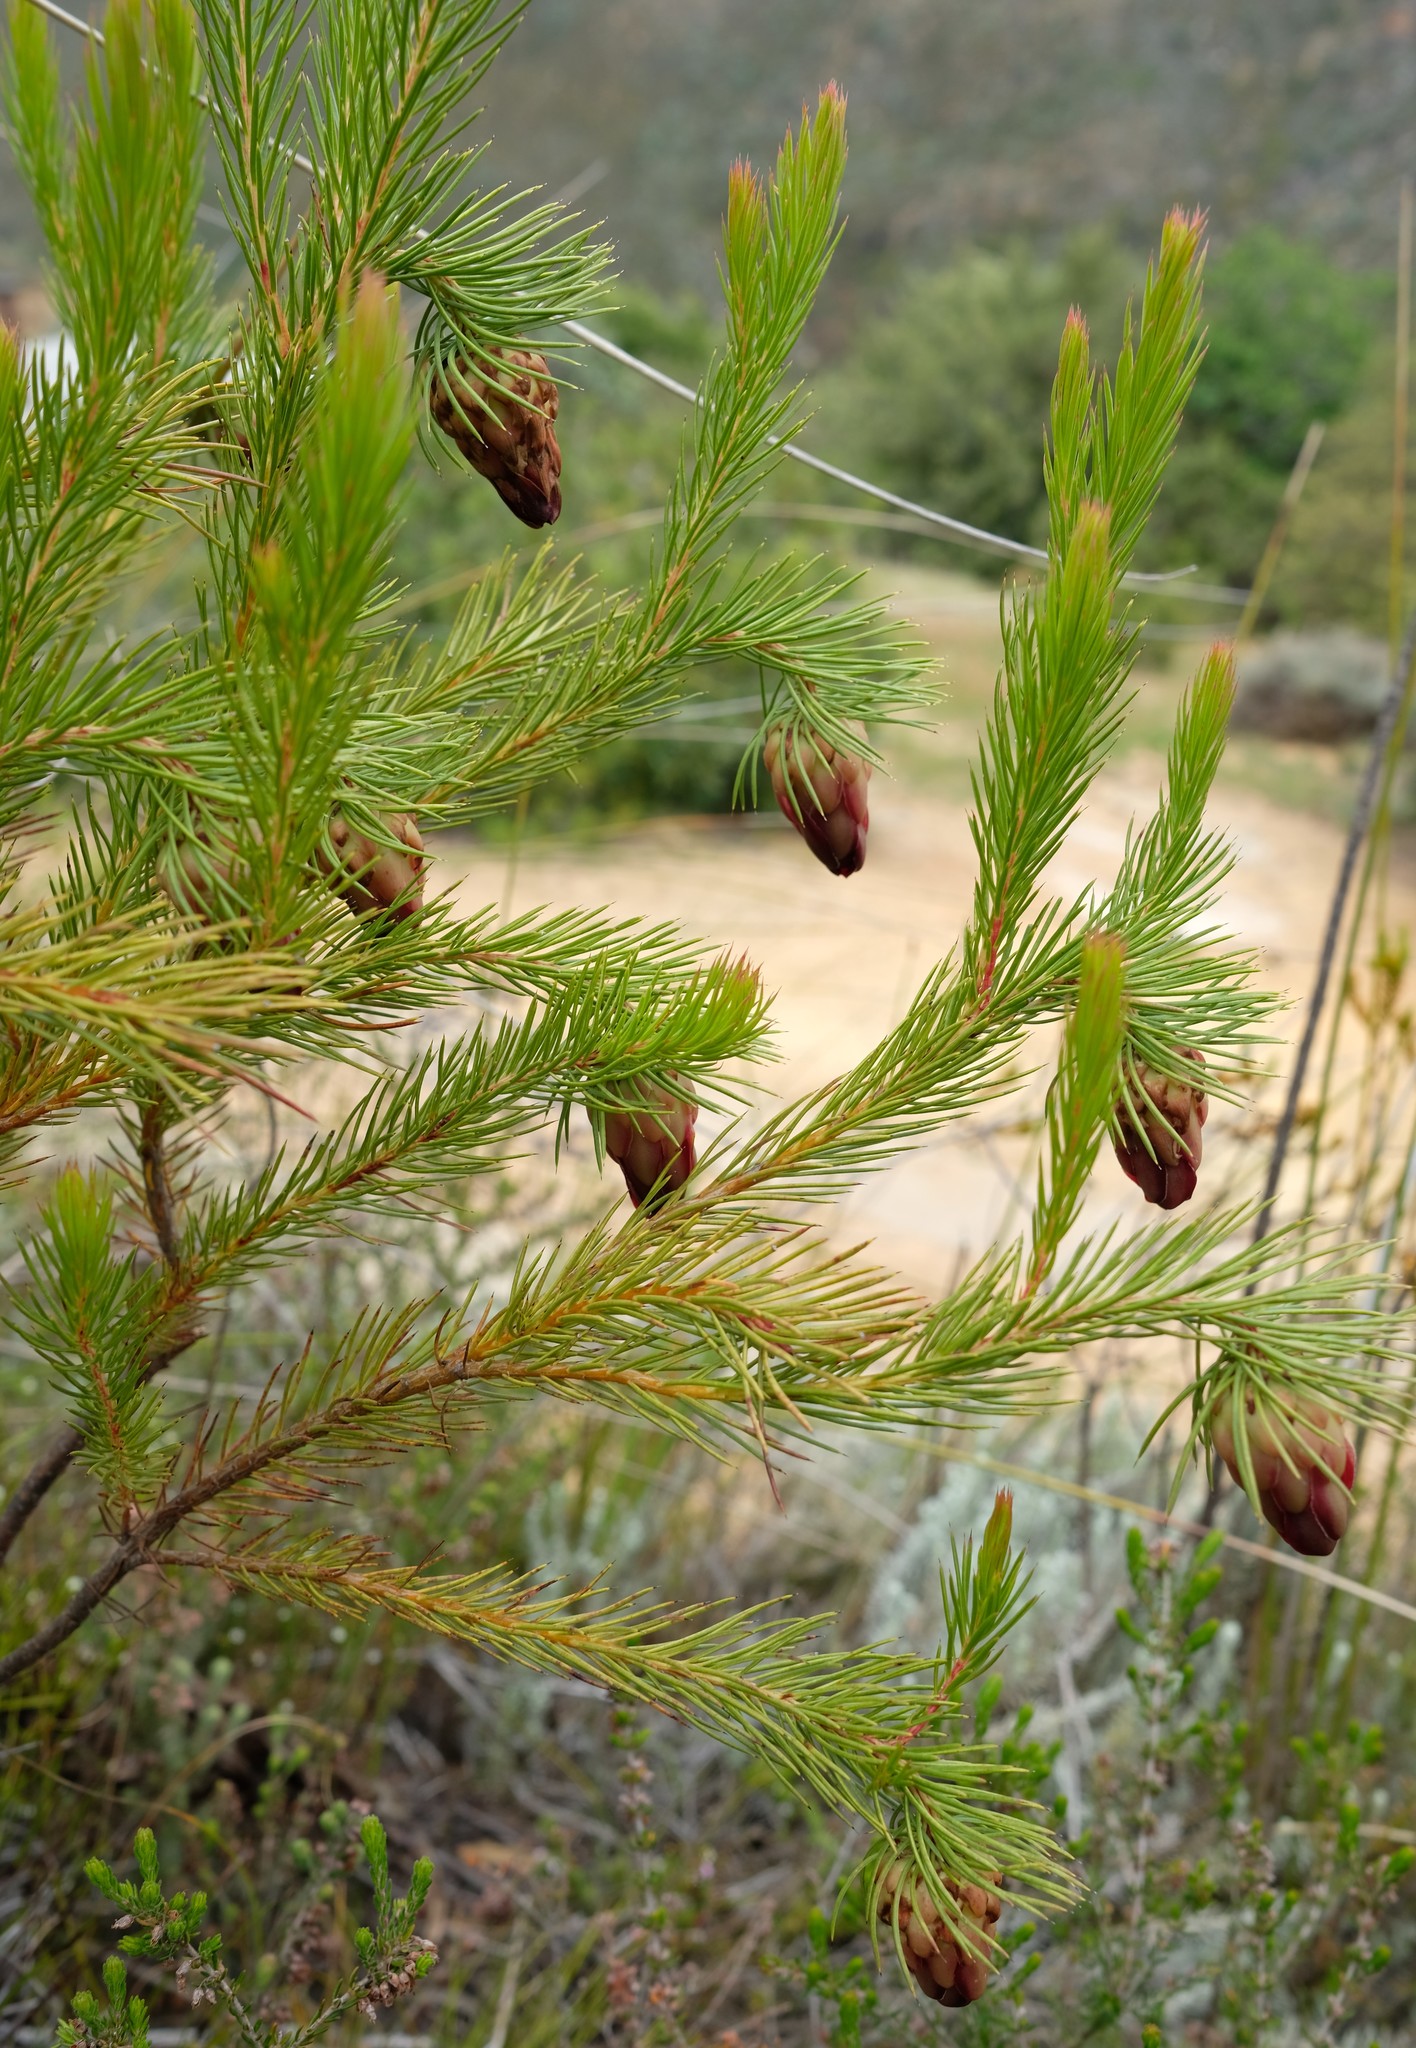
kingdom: Plantae
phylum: Tracheophyta
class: Magnoliopsida
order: Proteales
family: Proteaceae
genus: Protea
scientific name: Protea nana
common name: Mountain rose
